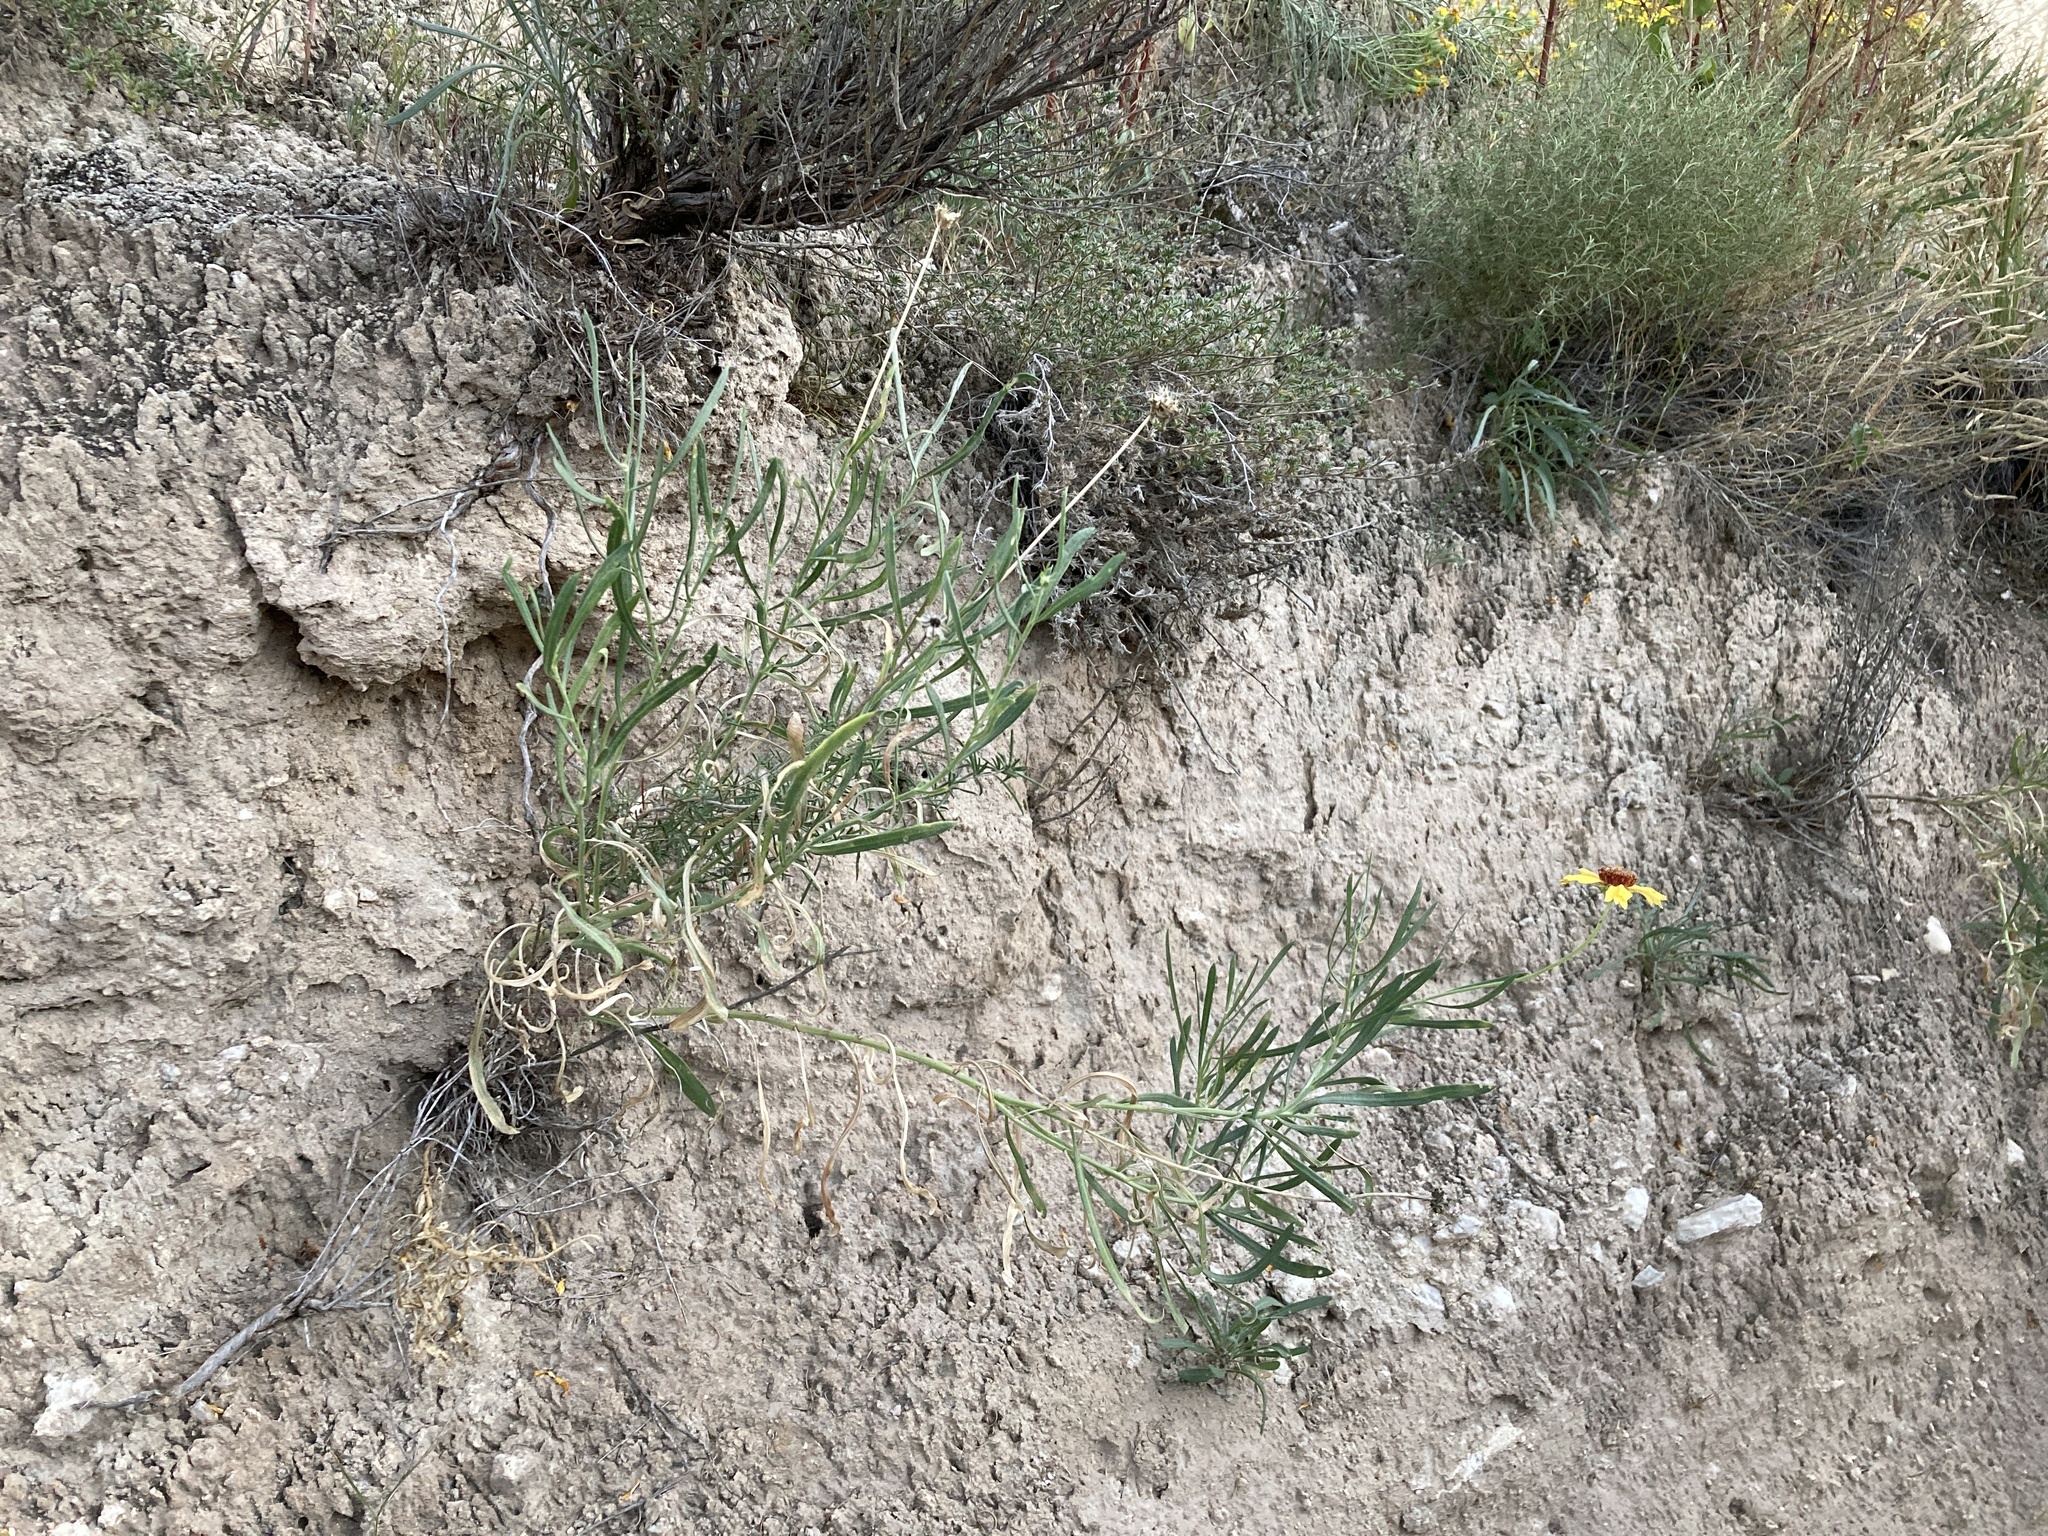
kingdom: Plantae
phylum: Tracheophyta
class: Magnoliopsida
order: Asterales
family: Asteraceae
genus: Gaillardia
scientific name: Gaillardia multiceps
